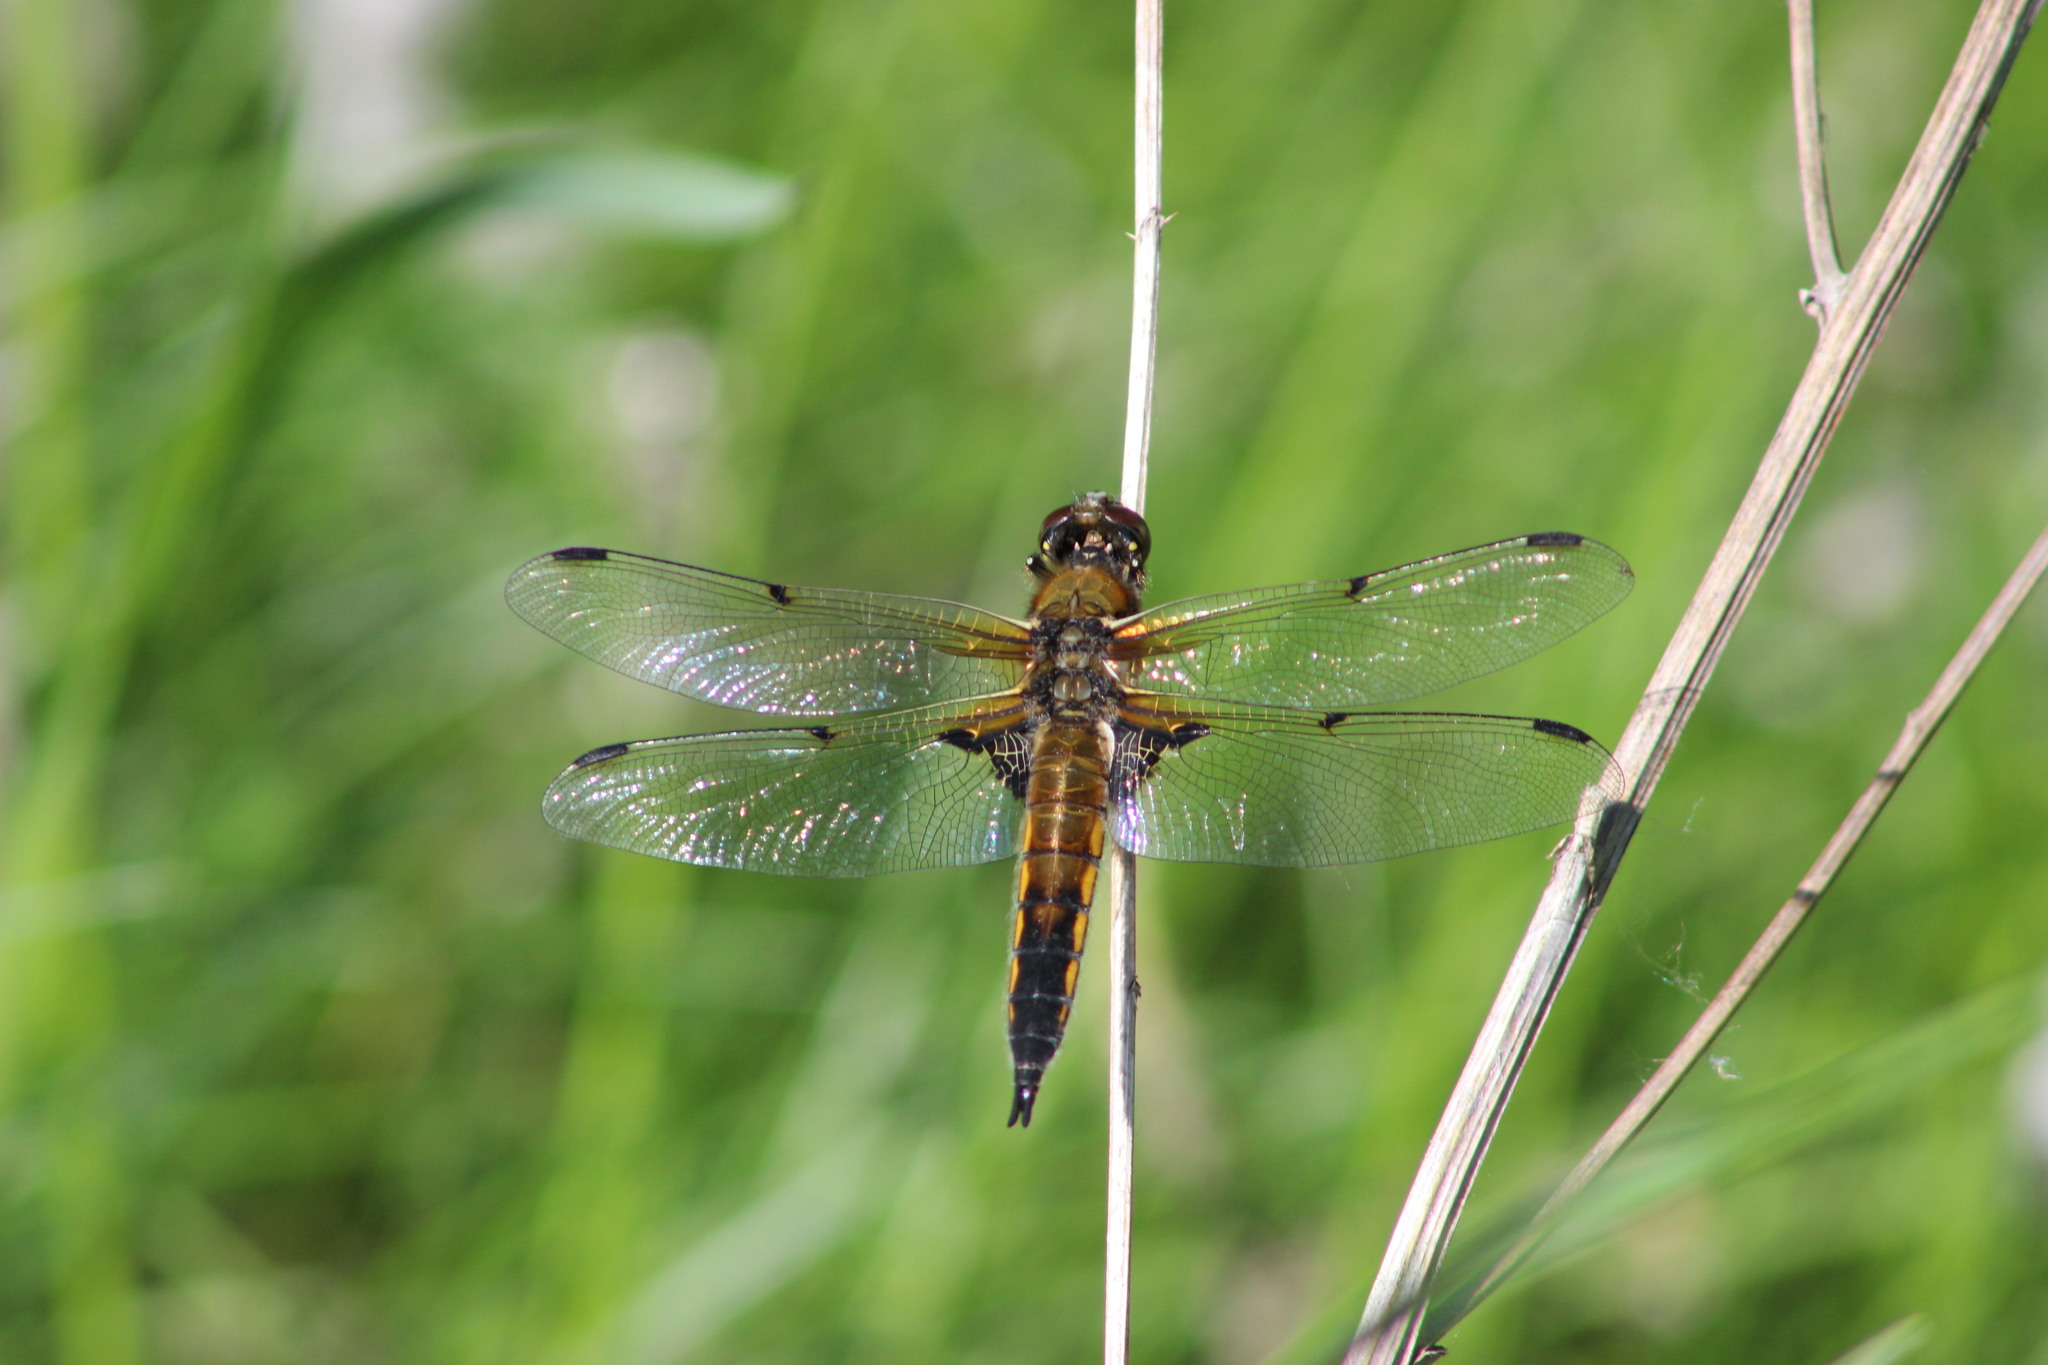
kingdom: Animalia
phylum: Arthropoda
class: Insecta
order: Odonata
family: Libellulidae
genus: Libellula
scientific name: Libellula quadrimaculata
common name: Four-spotted chaser
